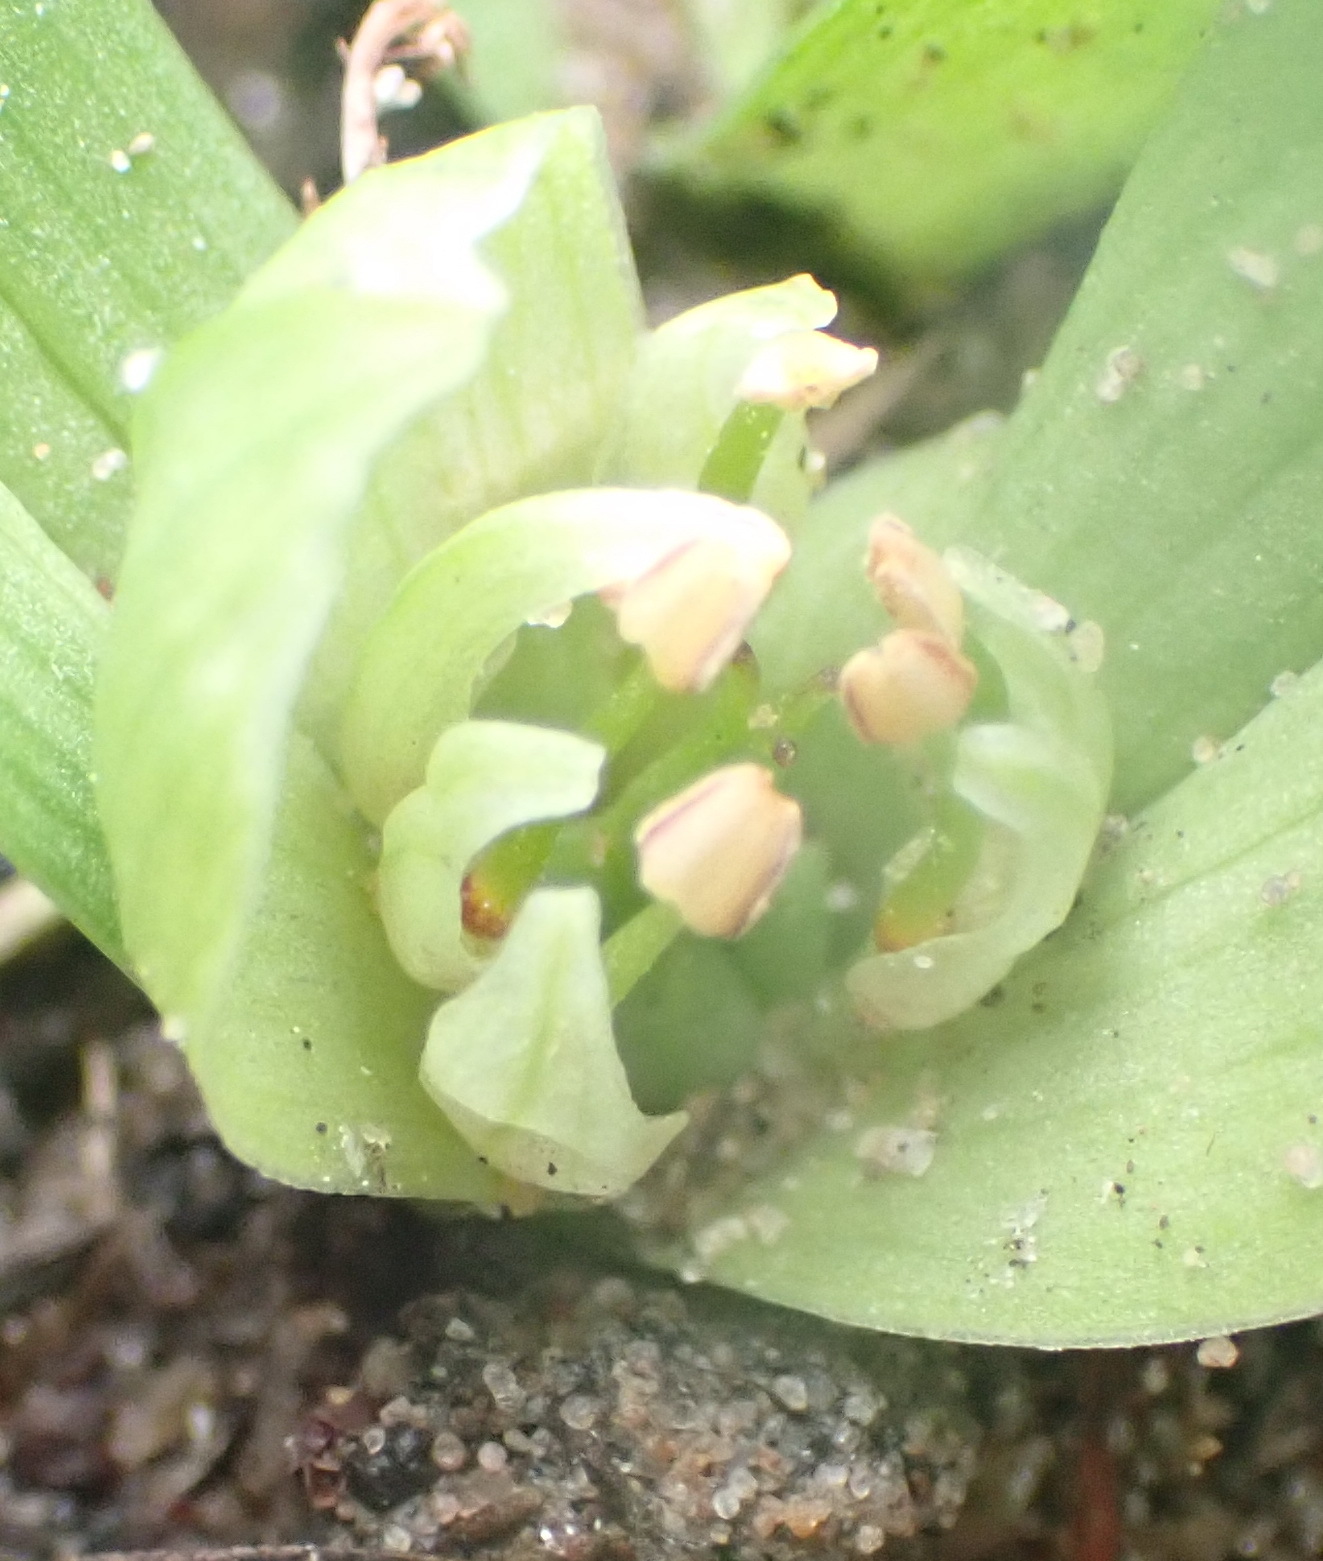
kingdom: Plantae
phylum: Tracheophyta
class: Liliopsida
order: Liliales
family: Colchicaceae
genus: Colchicum
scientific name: Colchicum longipes
